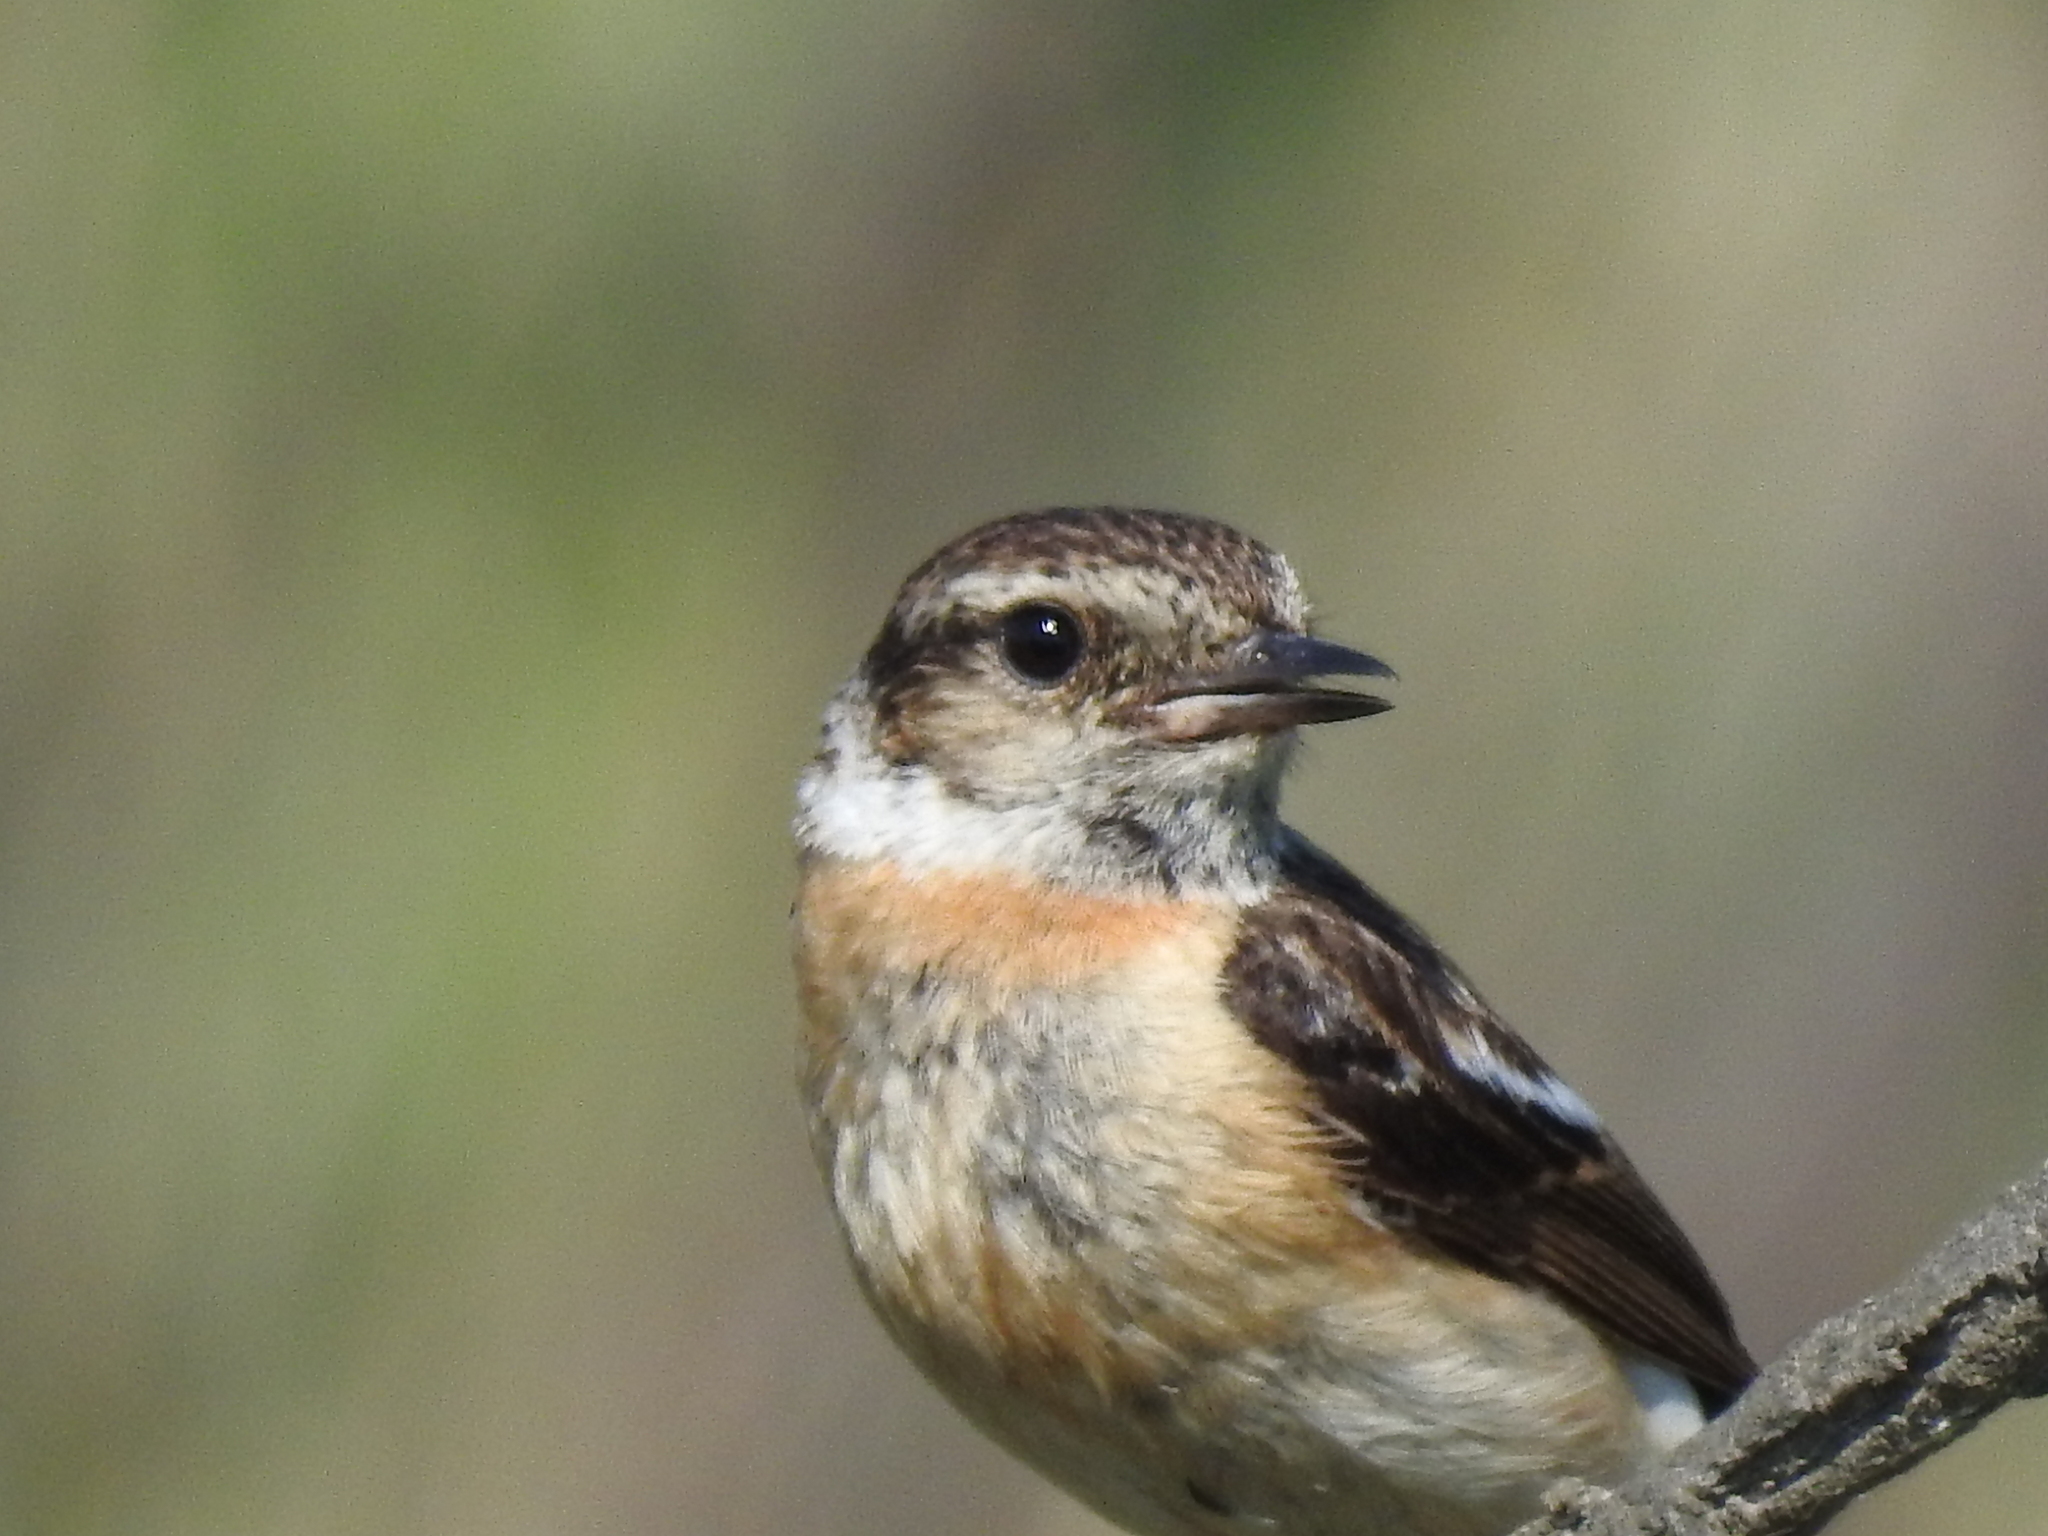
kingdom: Animalia
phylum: Chordata
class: Aves
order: Passeriformes
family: Muscicapidae
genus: Saxicola
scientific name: Saxicola maurus
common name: Siberian stonechat
